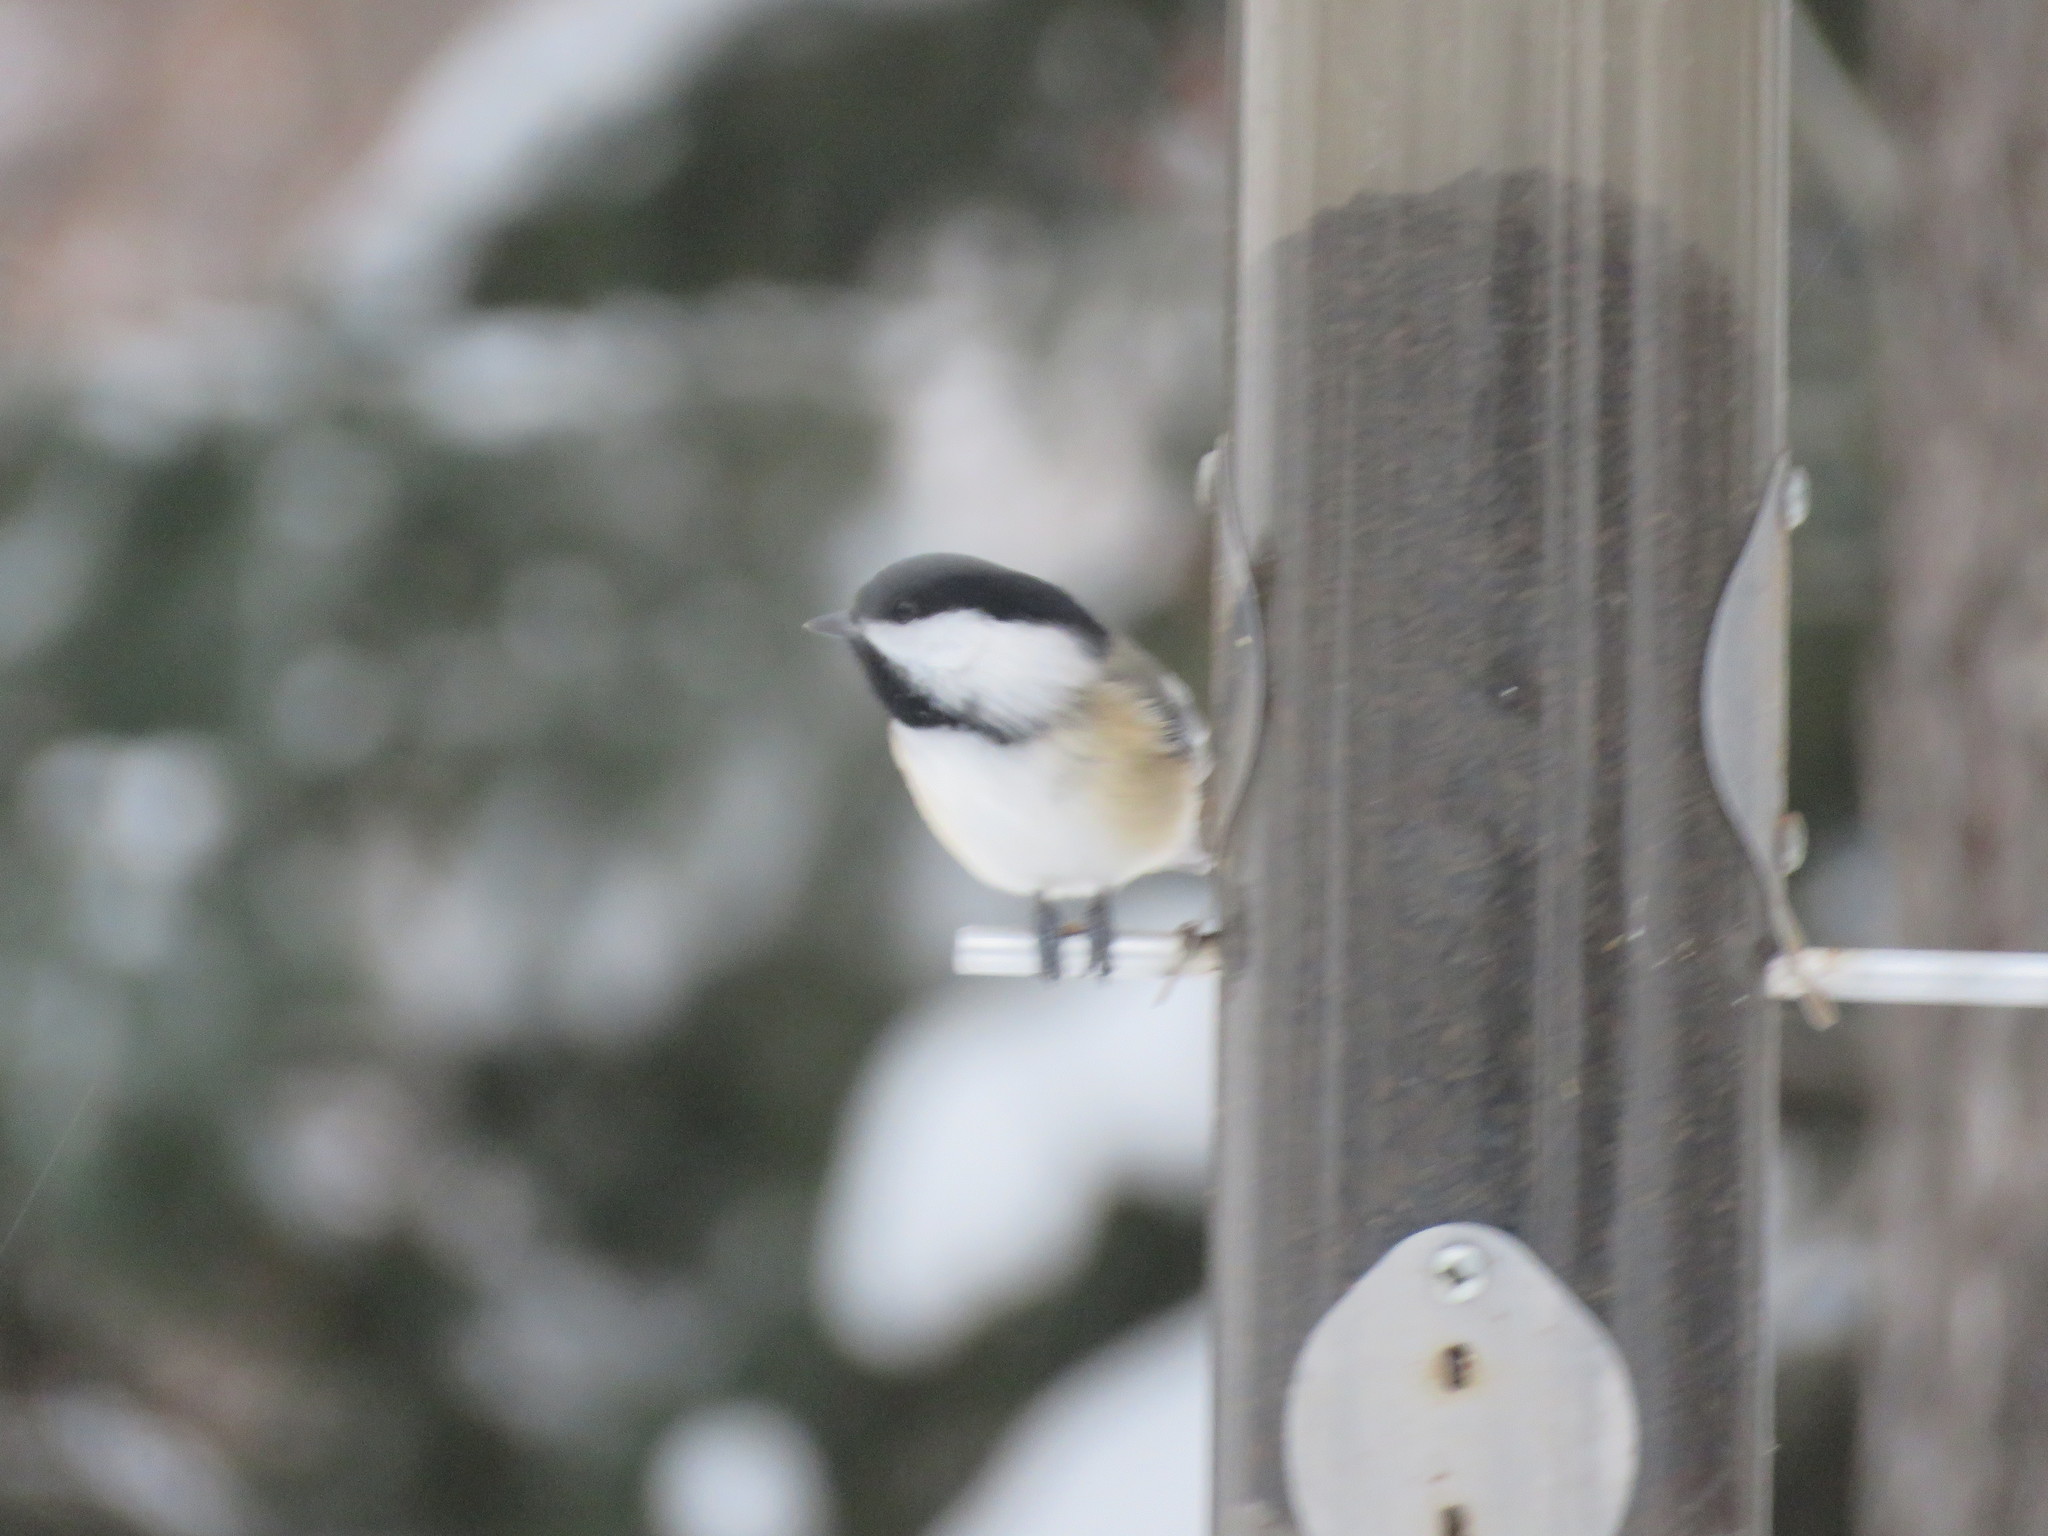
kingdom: Animalia
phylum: Chordata
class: Aves
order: Passeriformes
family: Paridae
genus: Poecile
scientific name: Poecile atricapillus
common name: Black-capped chickadee
